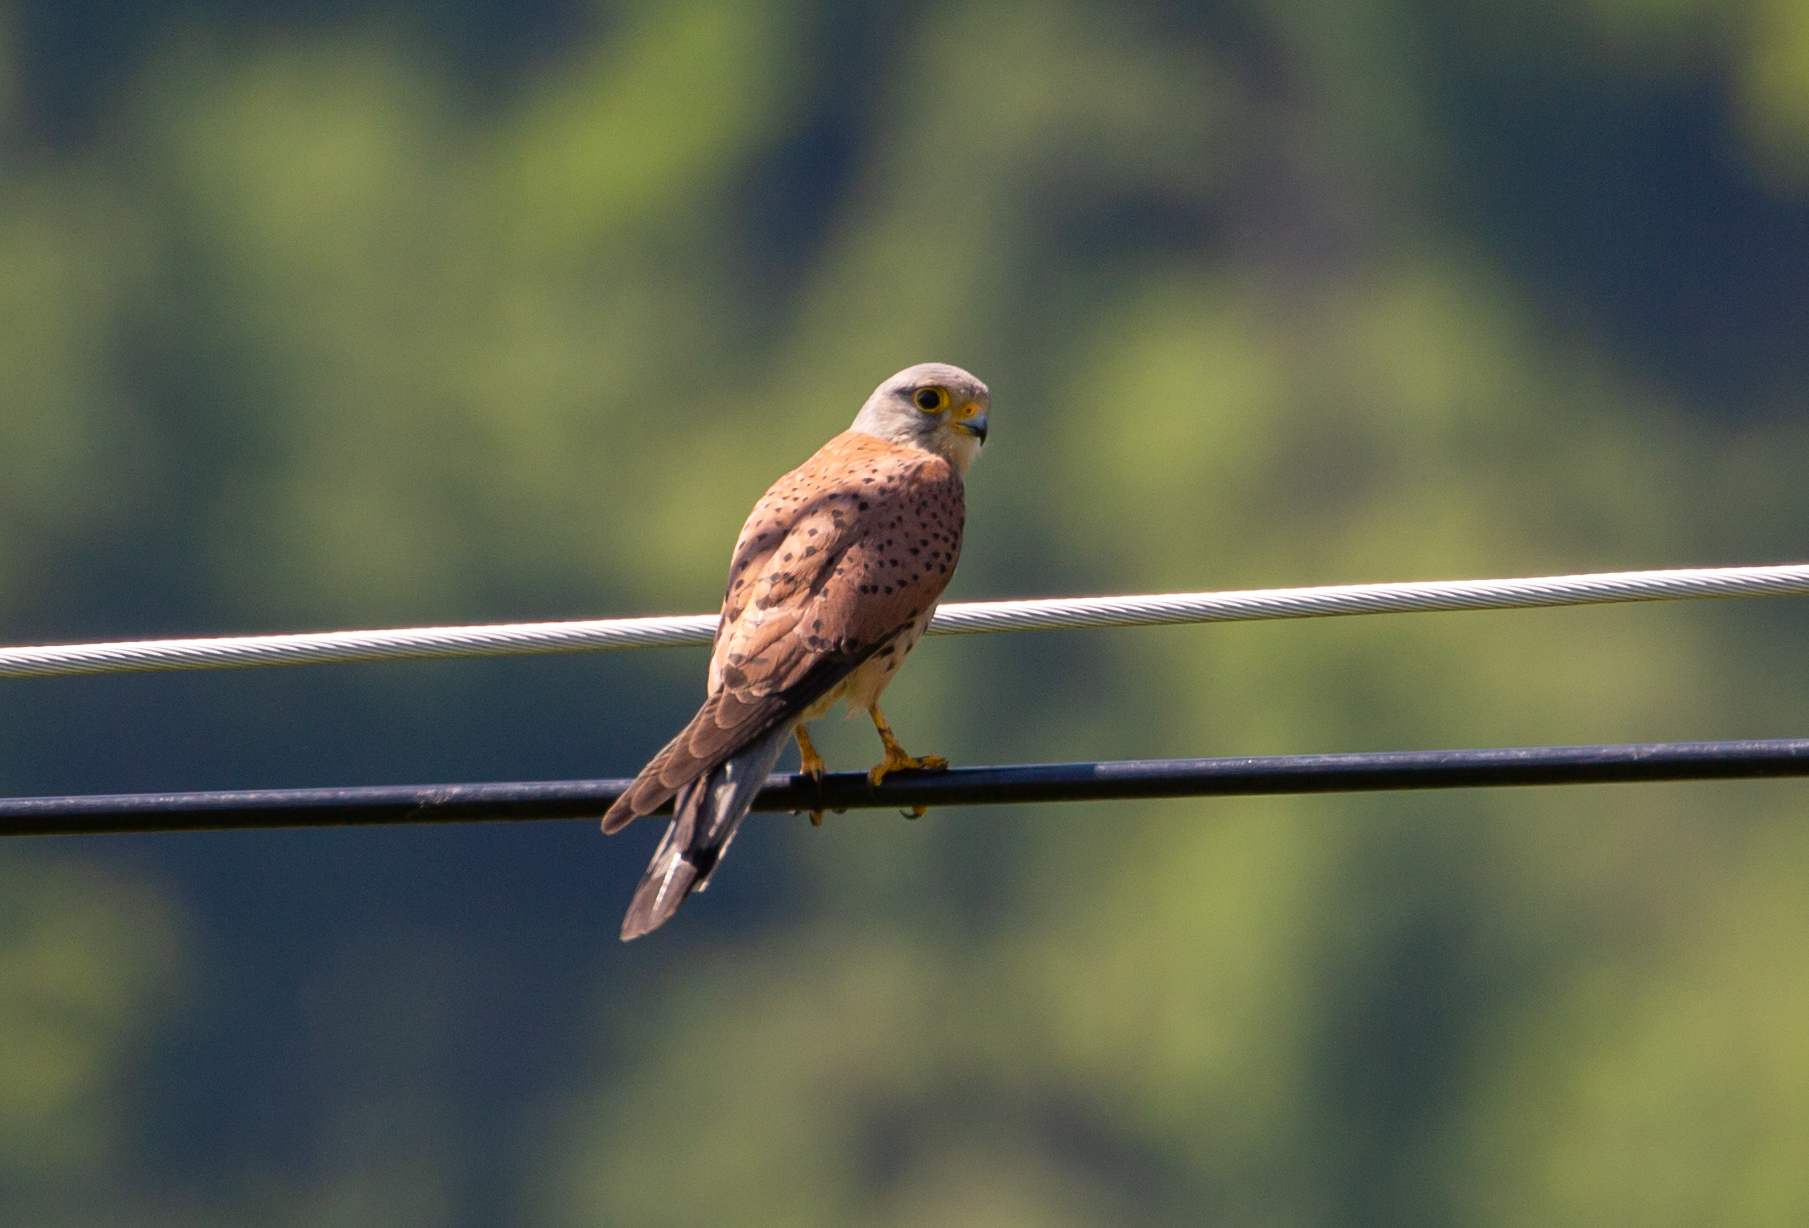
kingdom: Animalia
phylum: Chordata
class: Aves
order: Falconiformes
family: Falconidae
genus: Falco
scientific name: Falco tinnunculus
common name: Common kestrel
